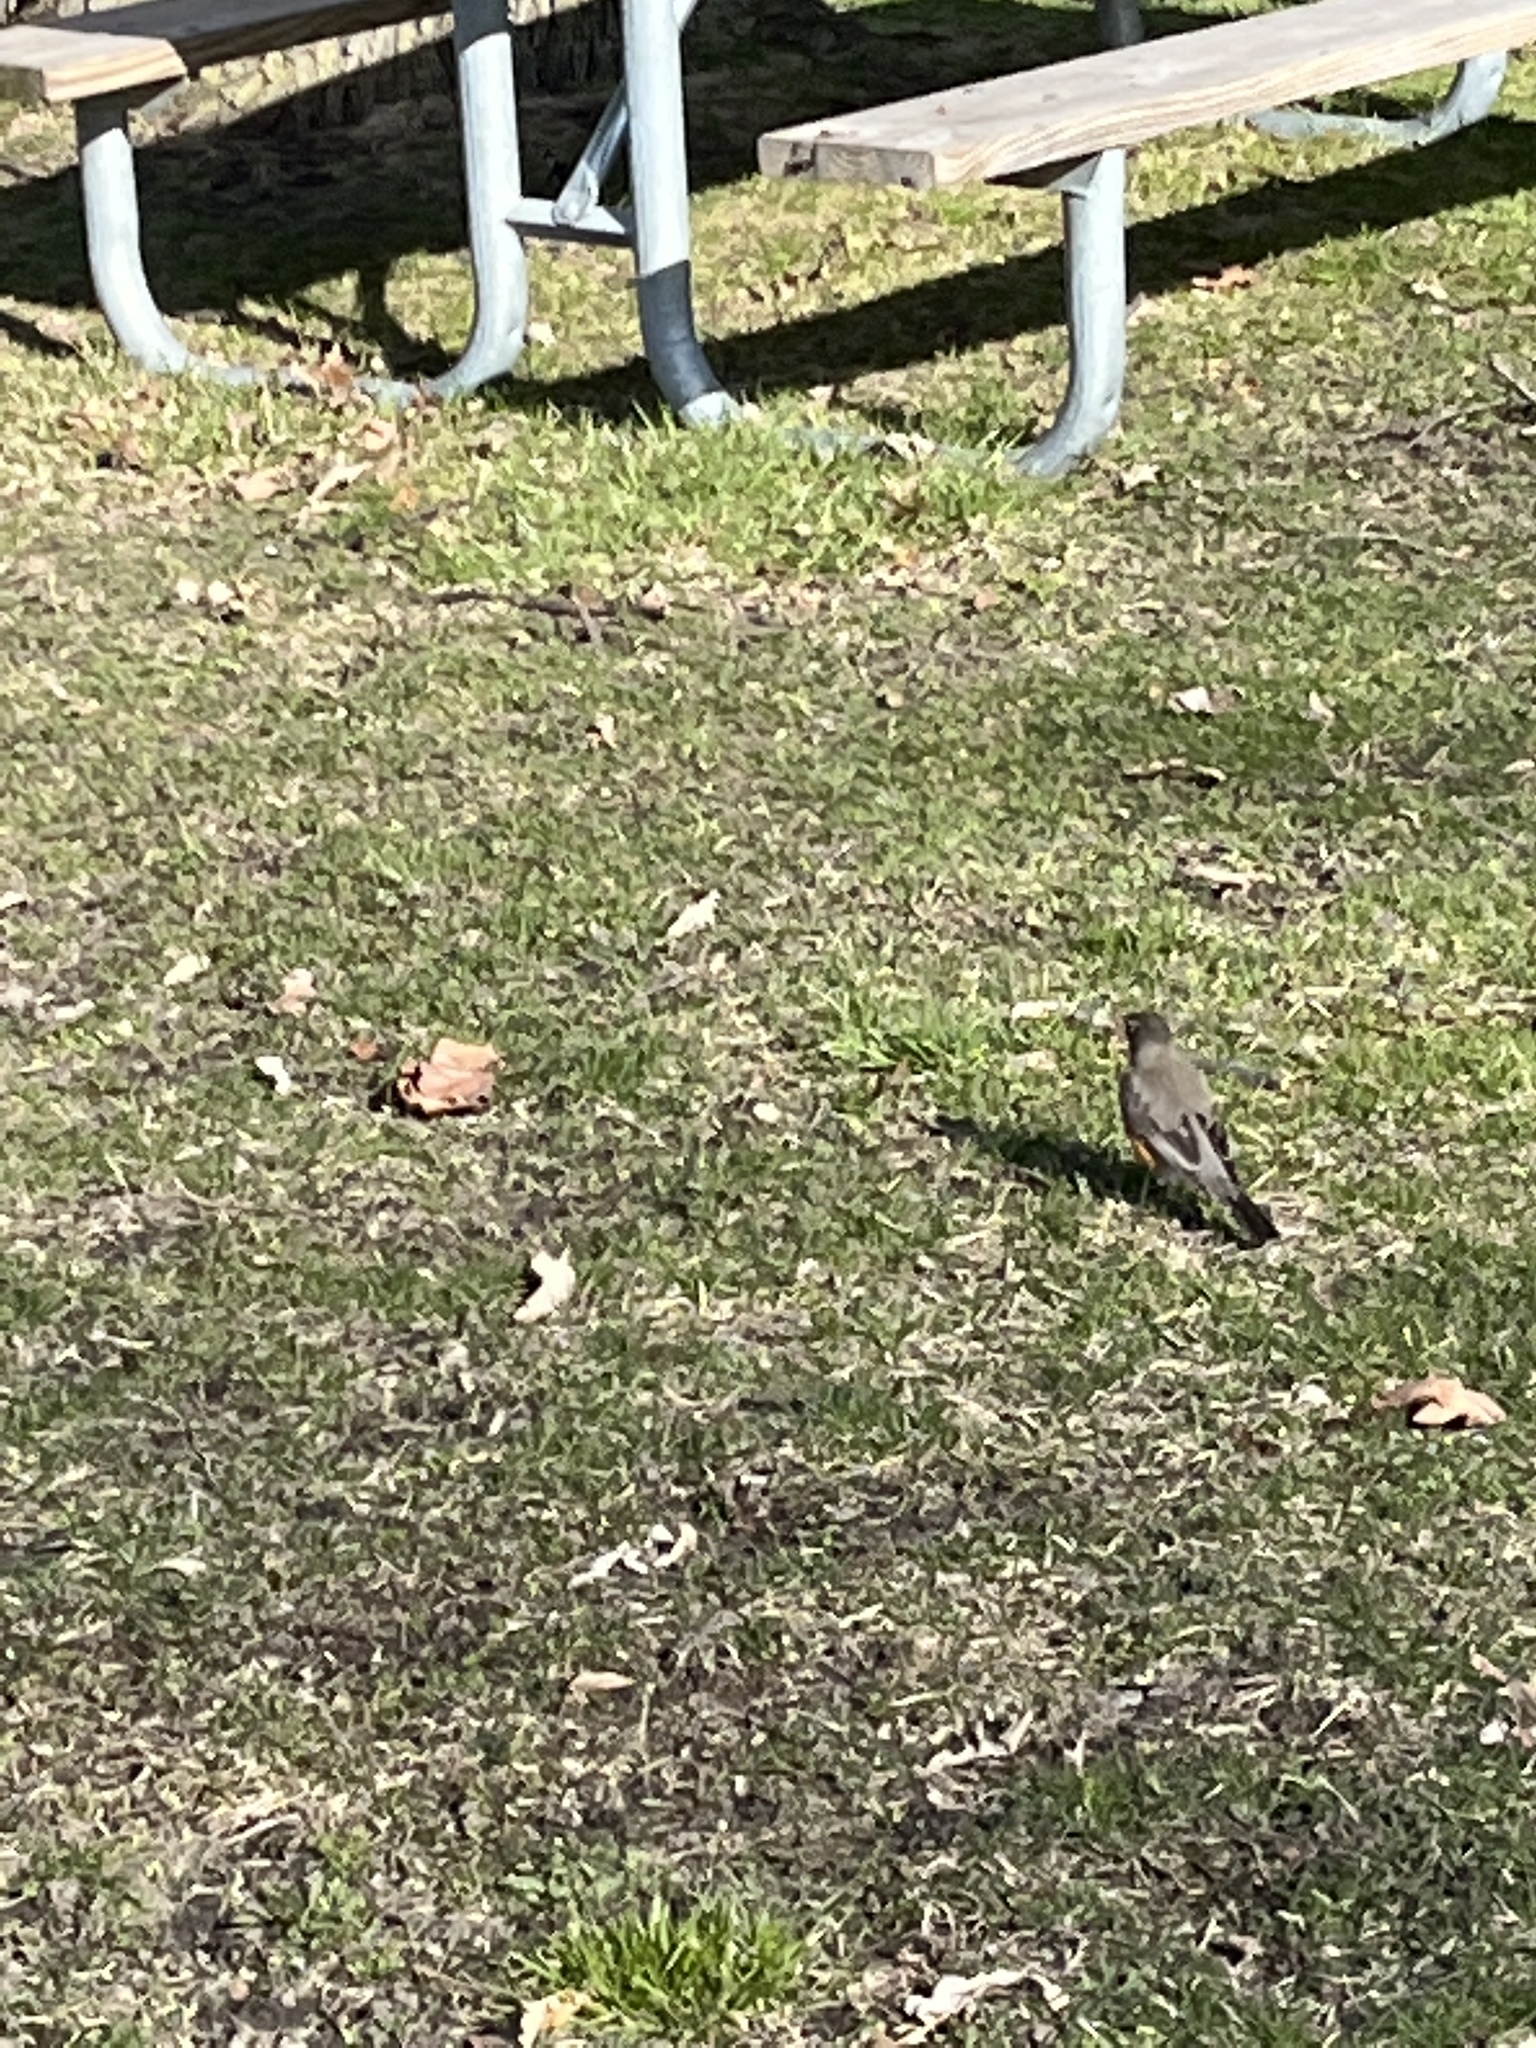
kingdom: Animalia
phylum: Chordata
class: Aves
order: Passeriformes
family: Turdidae
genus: Turdus
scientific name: Turdus migratorius
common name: American robin
